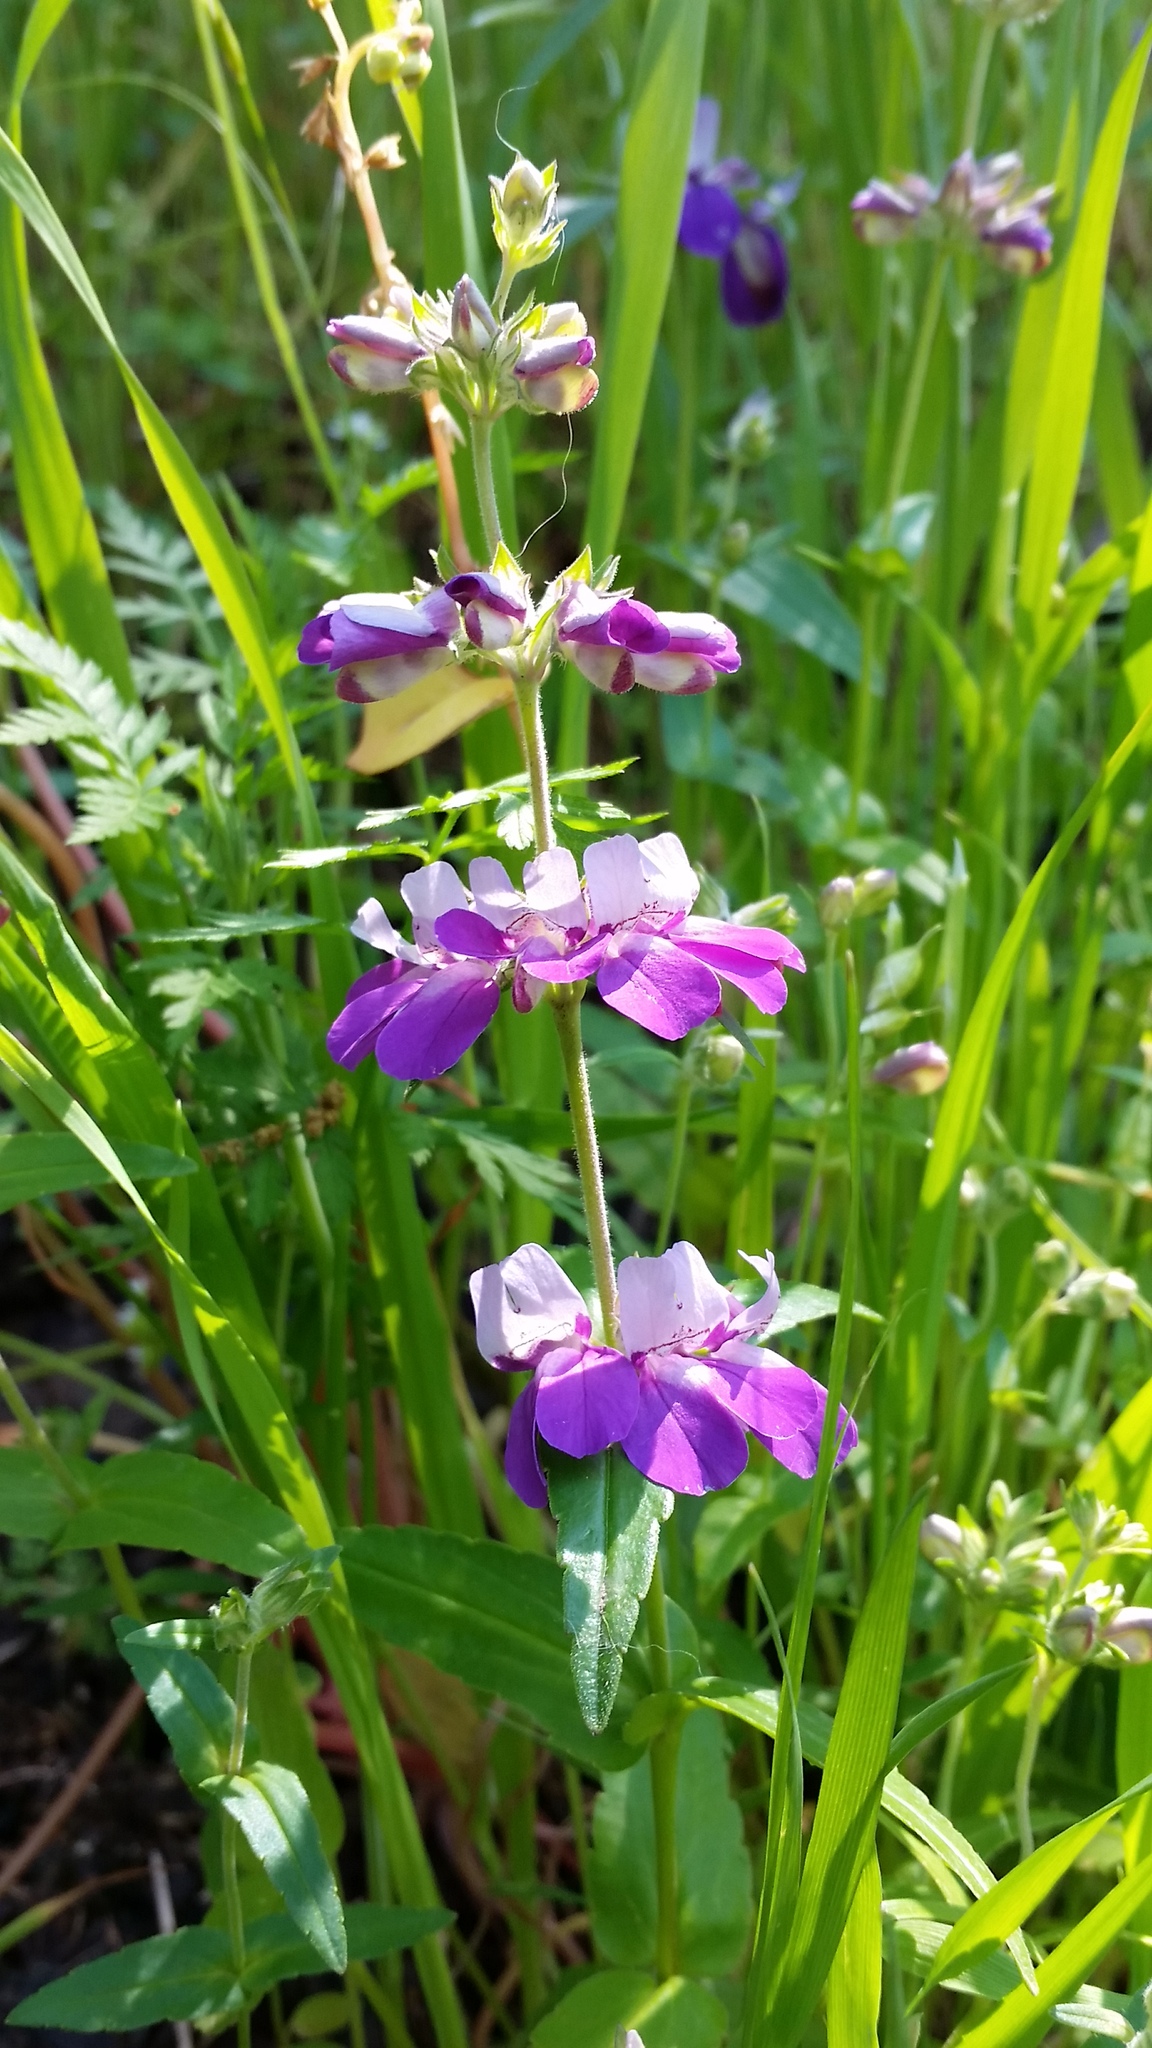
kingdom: Plantae
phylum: Tracheophyta
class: Magnoliopsida
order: Lamiales
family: Plantaginaceae
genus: Collinsia
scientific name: Collinsia heterophylla
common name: Chinese-houses
